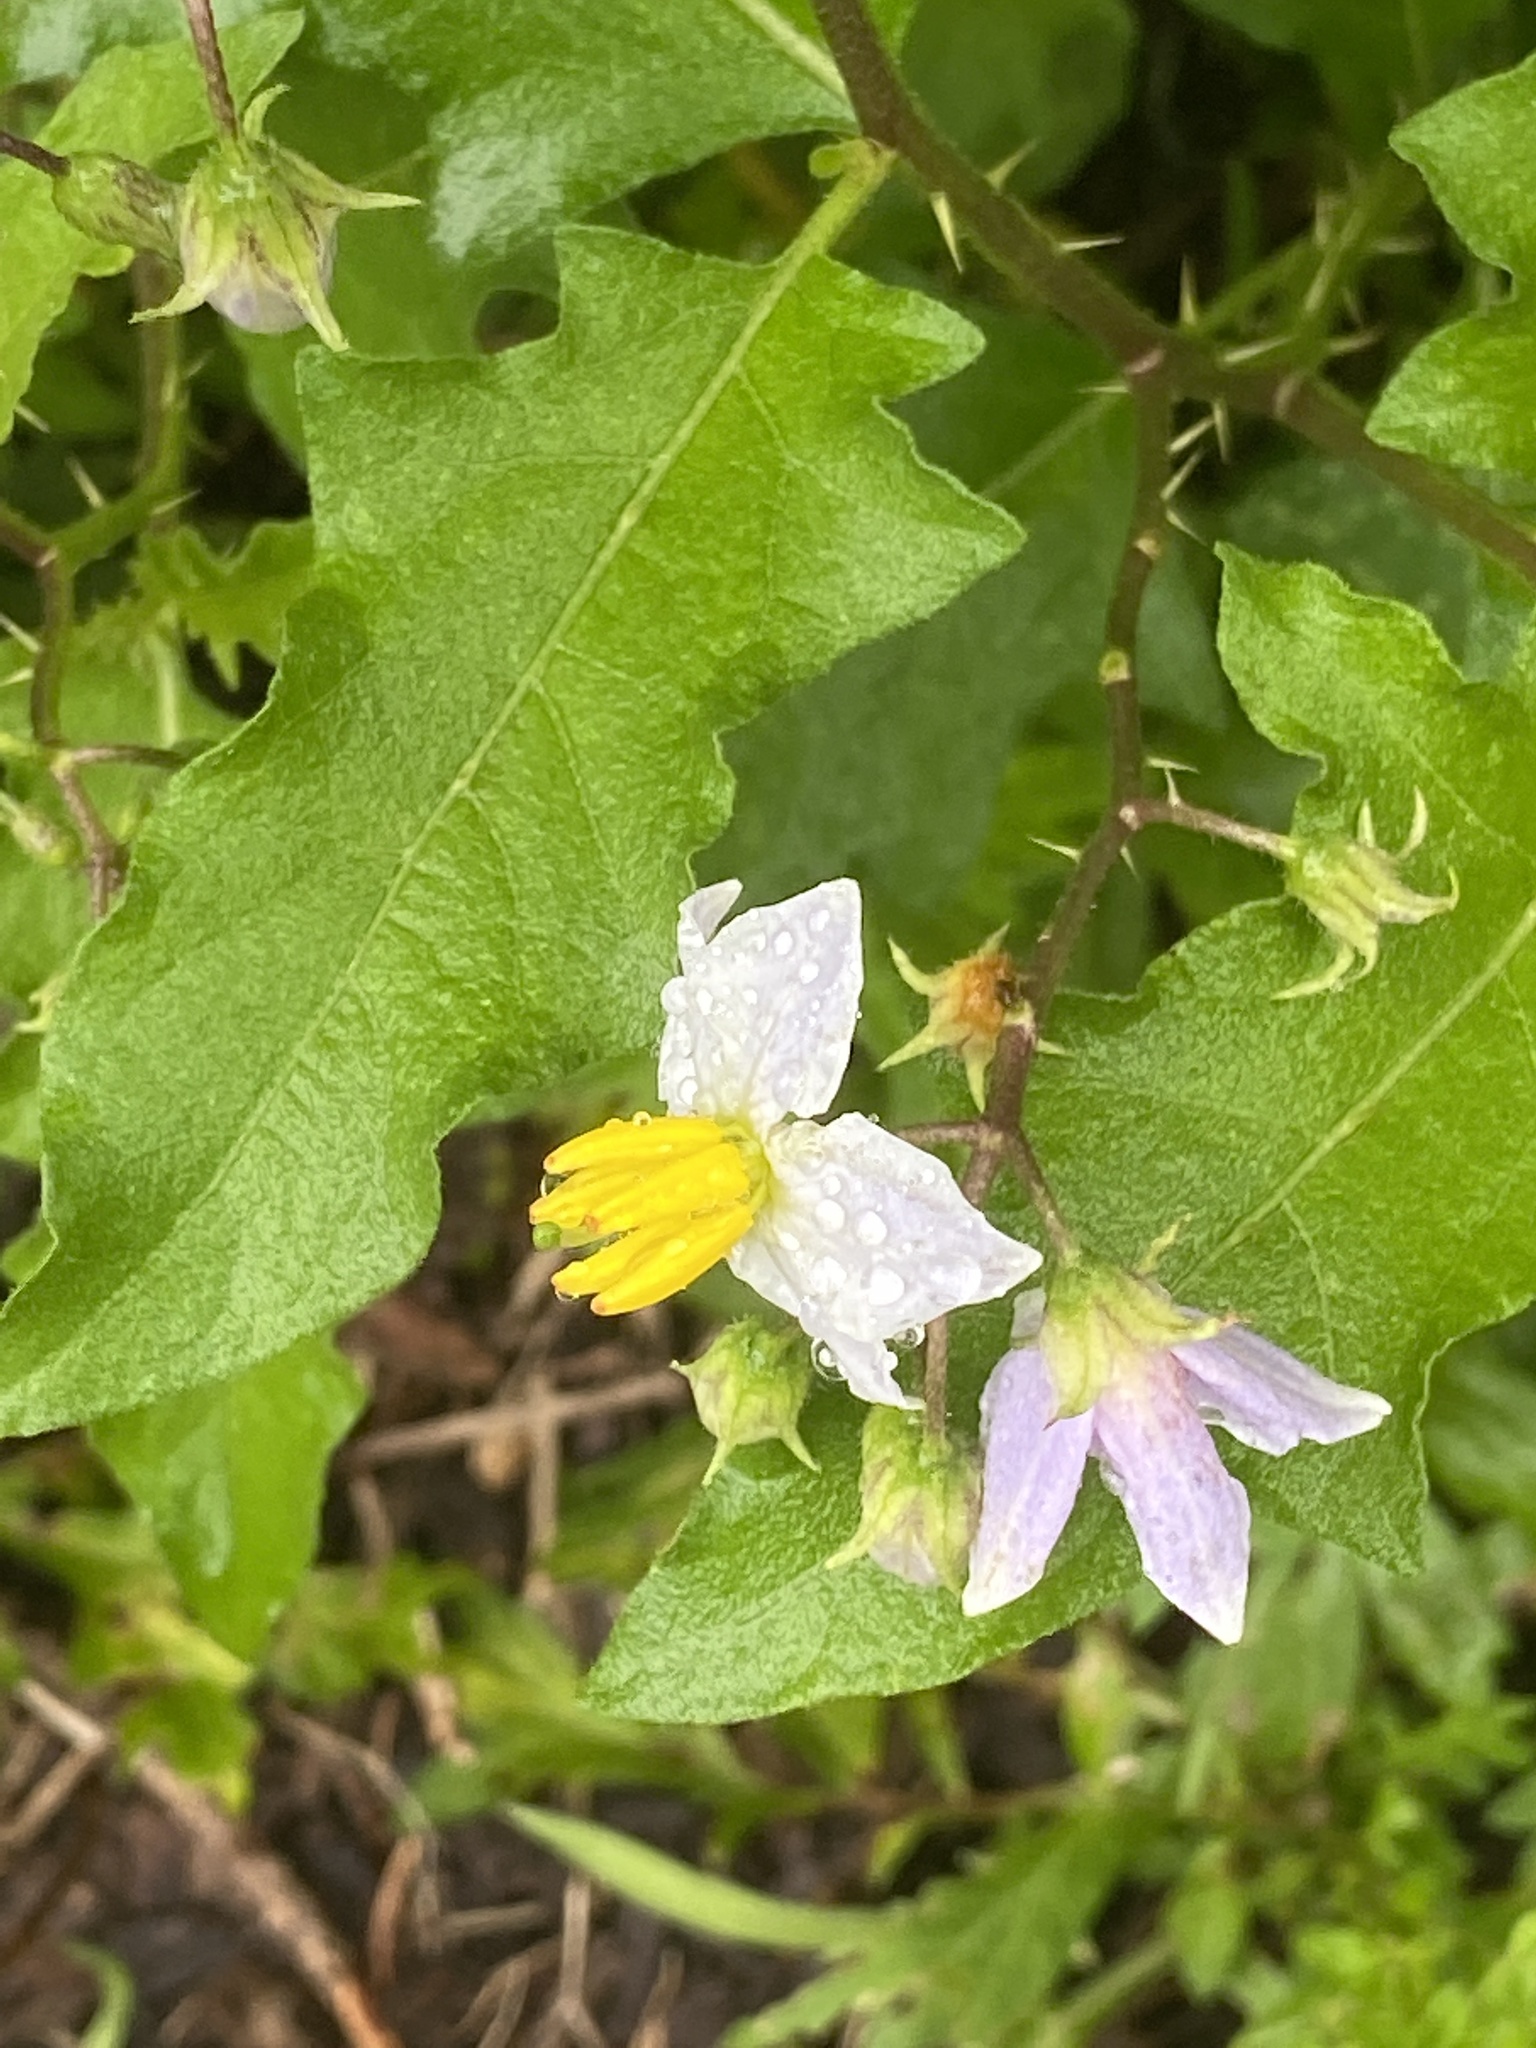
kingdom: Plantae
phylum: Tracheophyta
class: Magnoliopsida
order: Solanales
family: Solanaceae
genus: Solanum
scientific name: Solanum carolinense
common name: Horse-nettle
